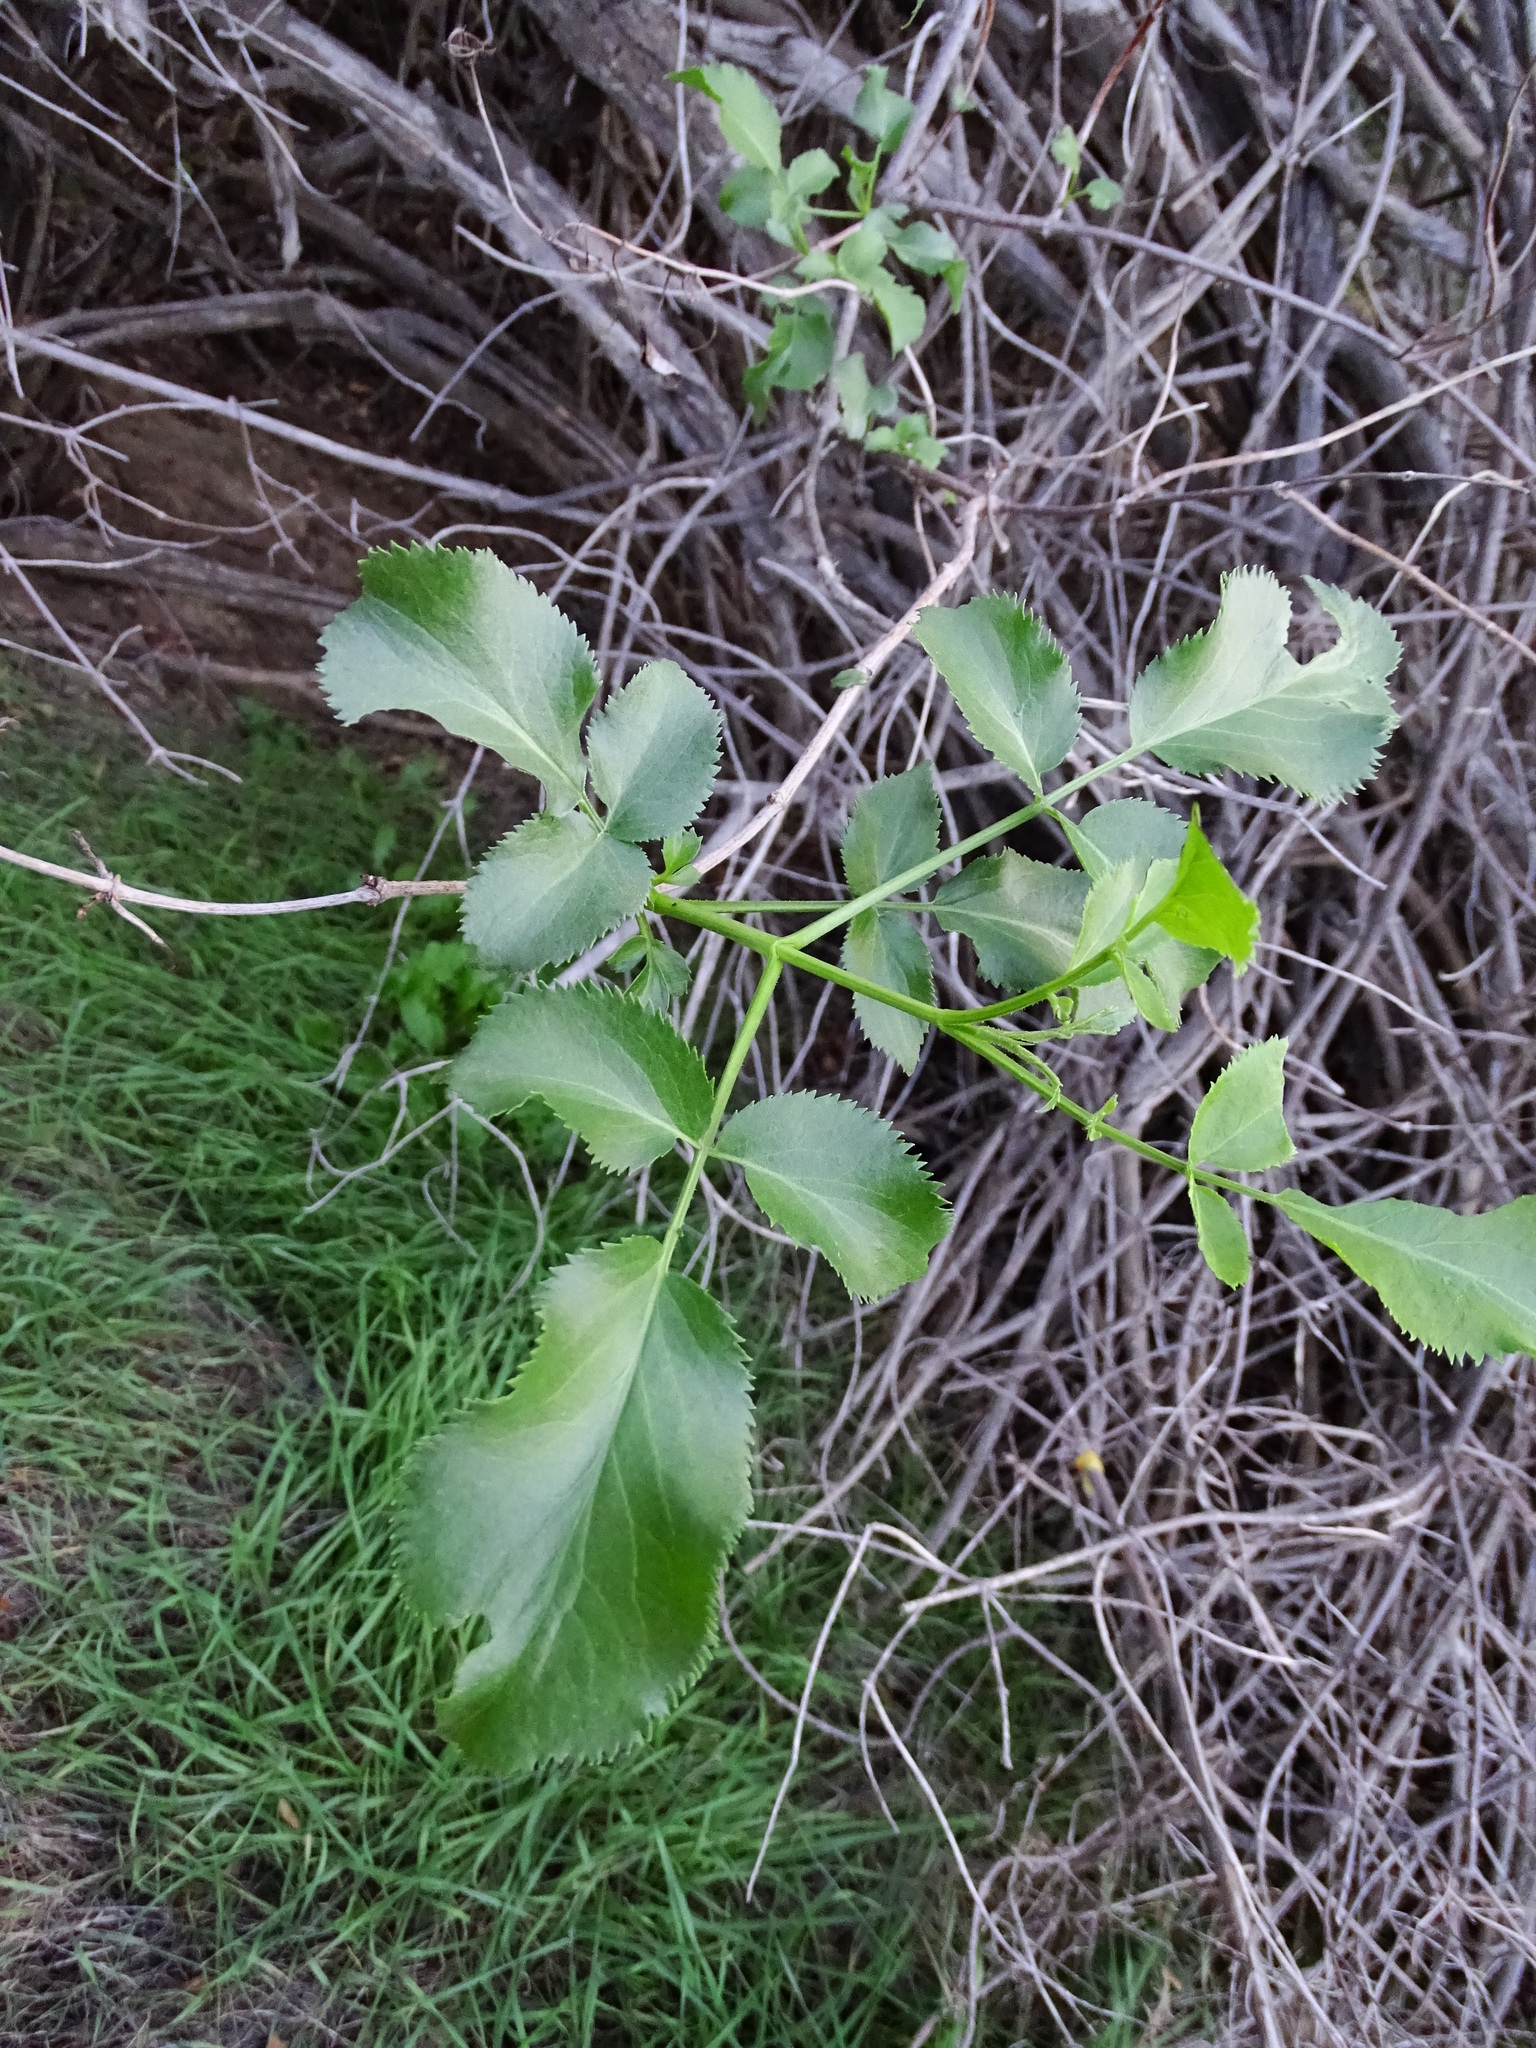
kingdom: Plantae
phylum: Tracheophyta
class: Magnoliopsida
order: Dipsacales
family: Viburnaceae
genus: Sambucus
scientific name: Sambucus cerulea
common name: Blue elder
